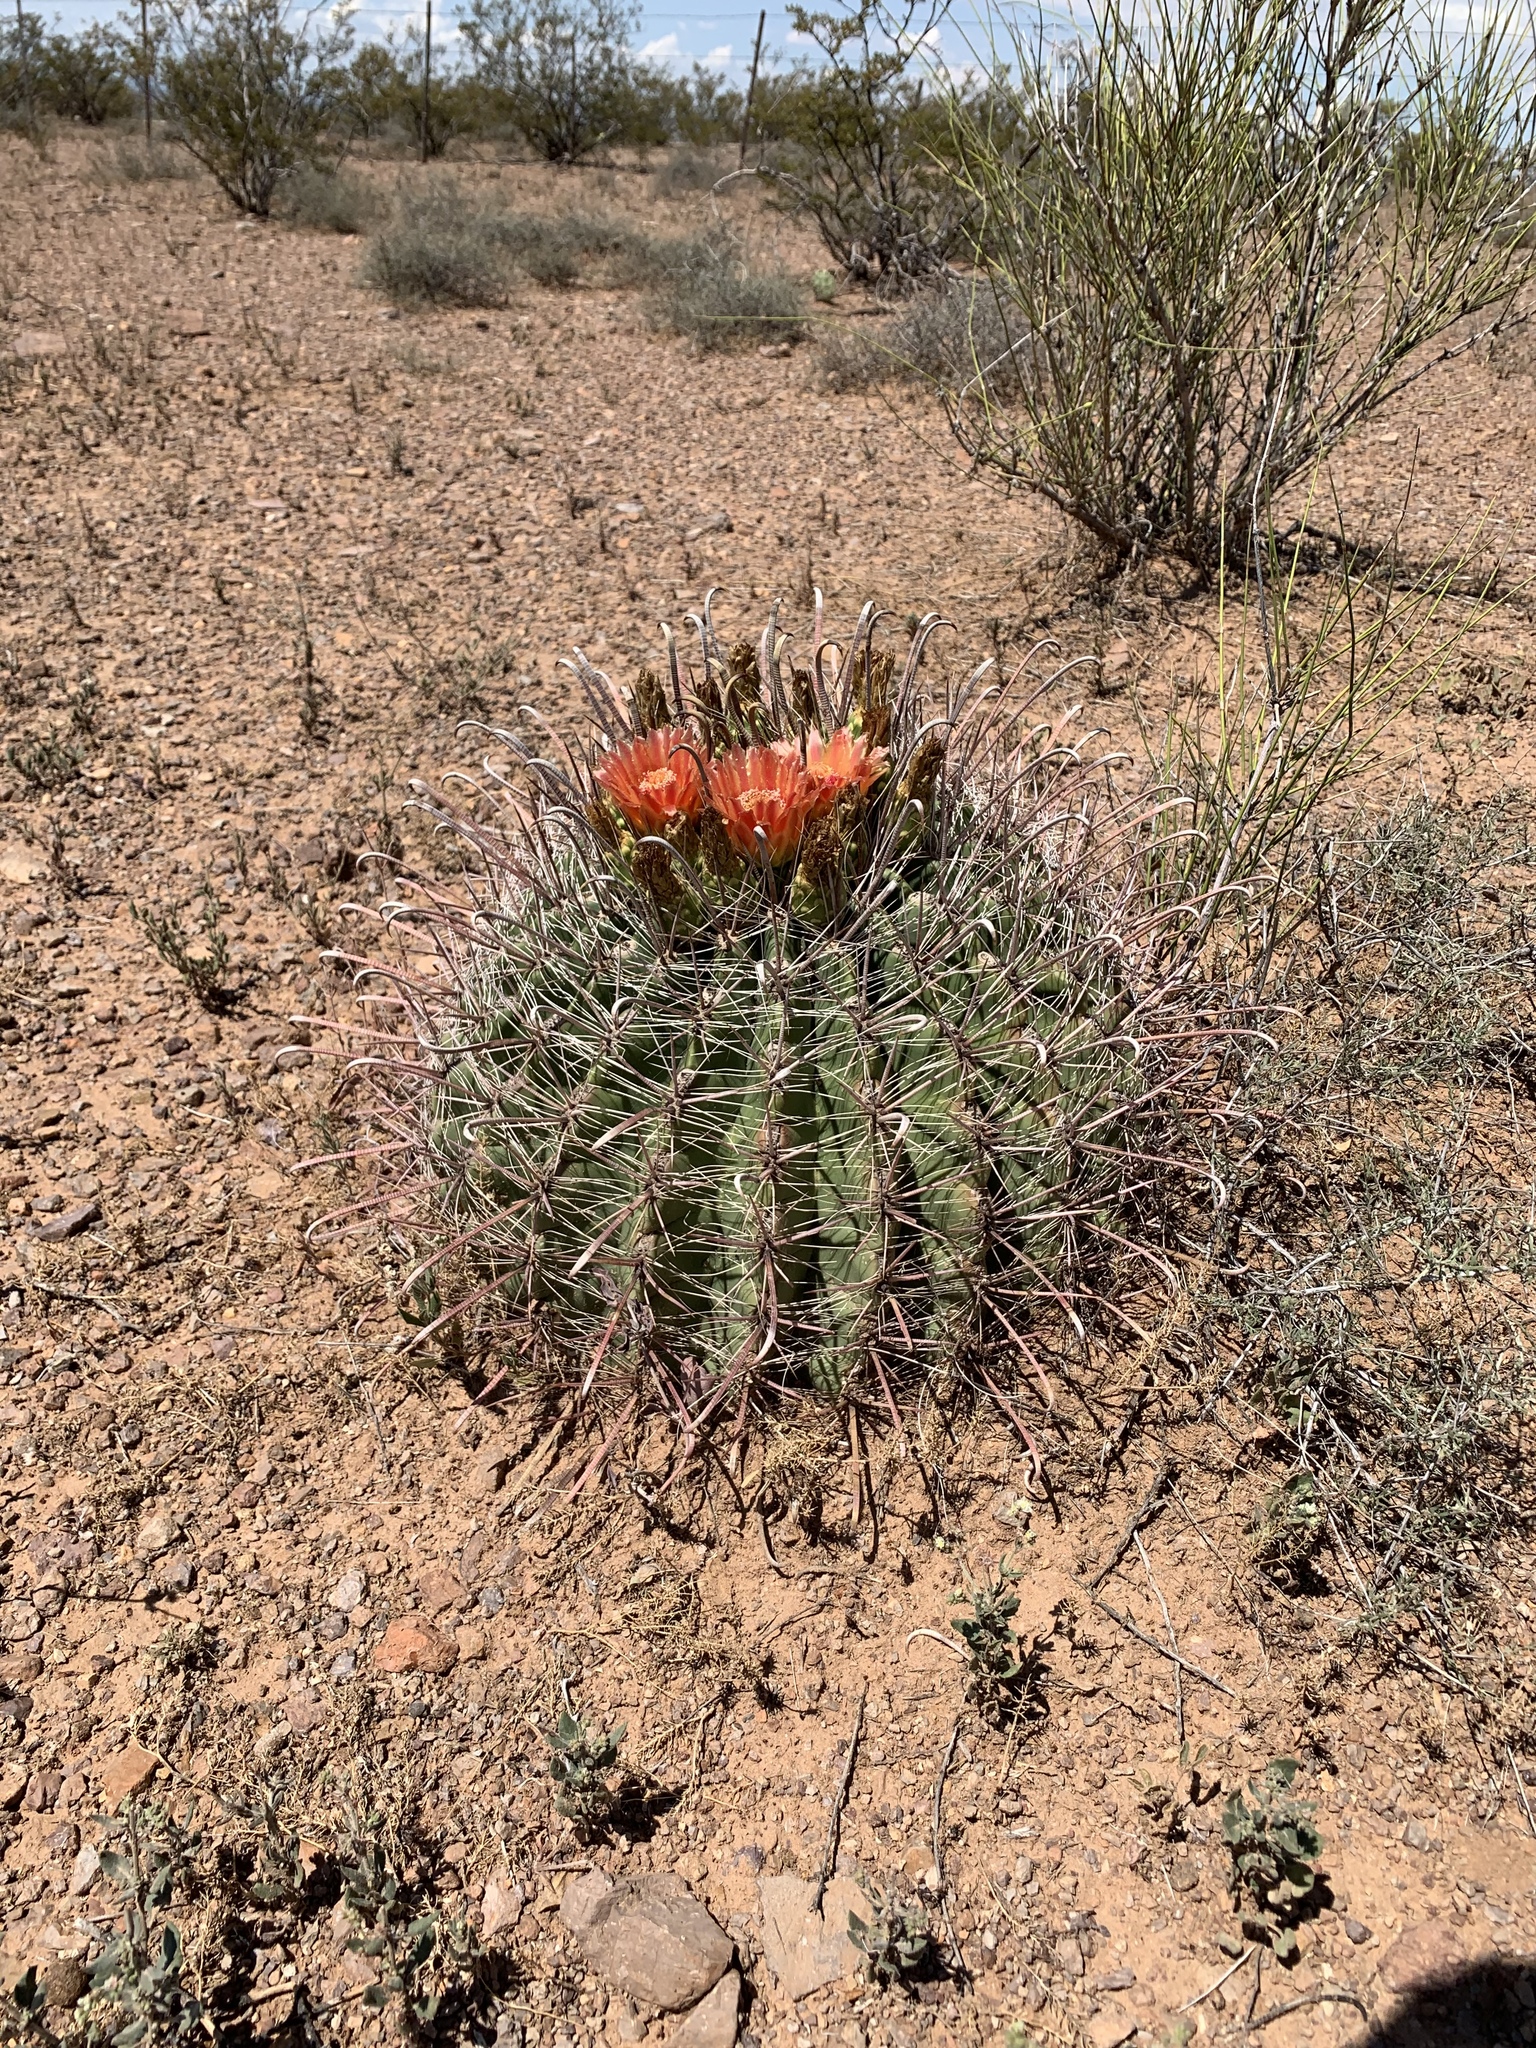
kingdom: Plantae
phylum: Tracheophyta
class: Magnoliopsida
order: Caryophyllales
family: Cactaceae
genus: Ferocactus
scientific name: Ferocactus wislizeni
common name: Candy barrel cactus
